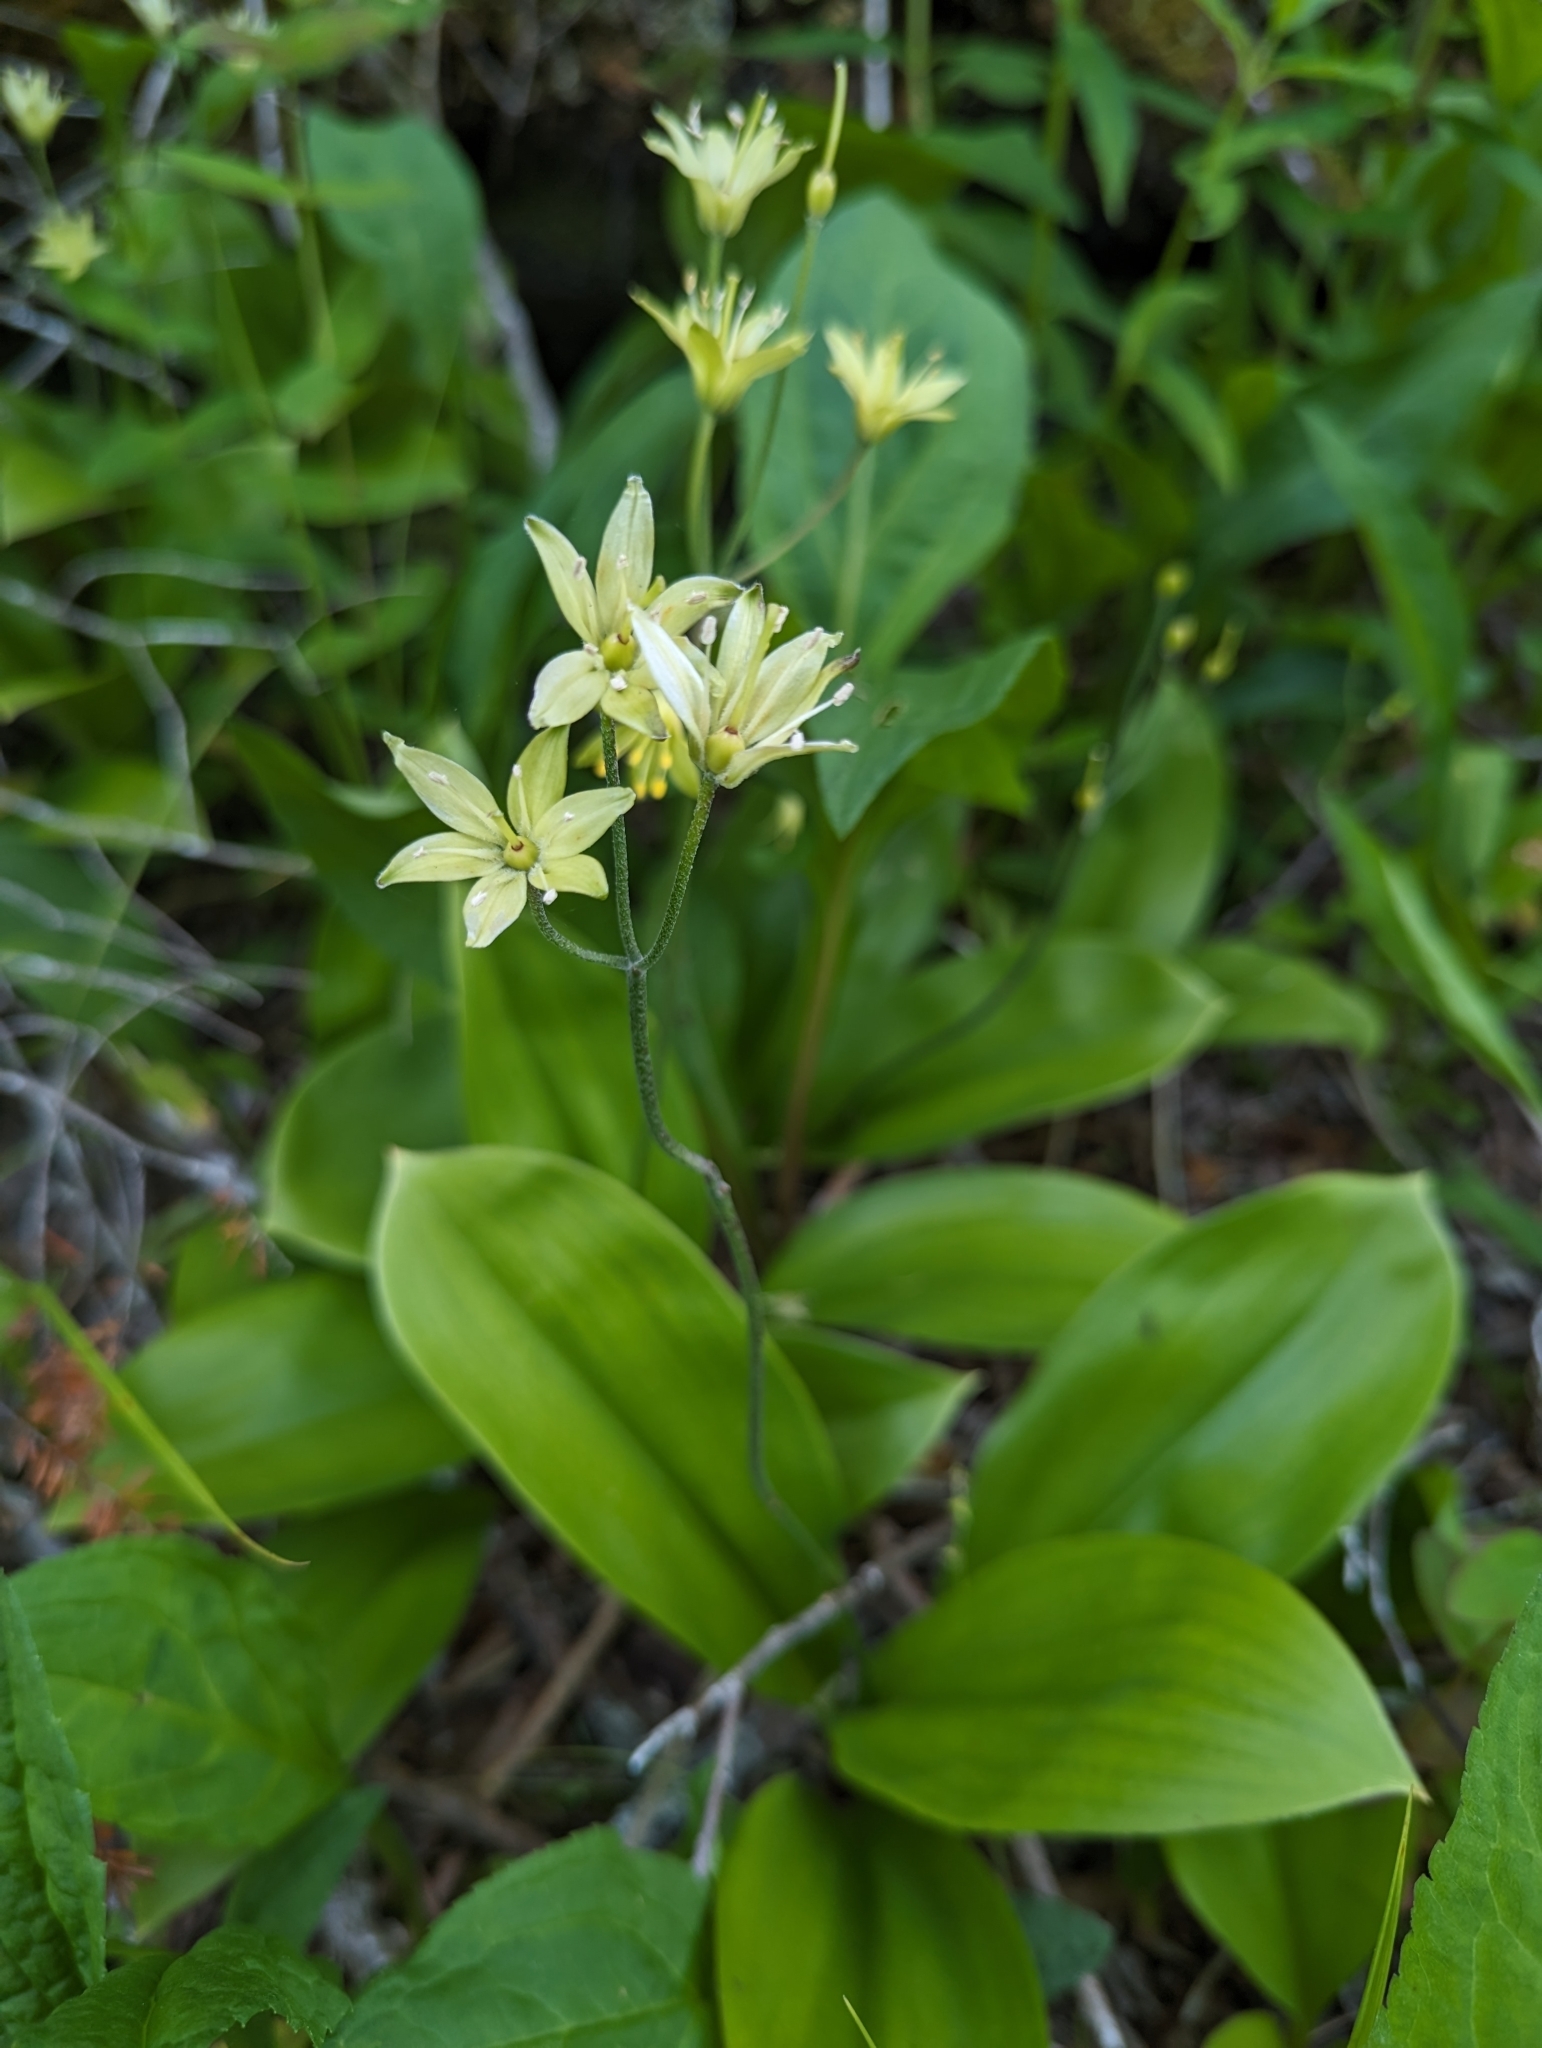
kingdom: Plantae
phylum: Tracheophyta
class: Liliopsida
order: Liliales
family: Liliaceae
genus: Clintonia
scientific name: Clintonia borealis
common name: Yellow clintonia
